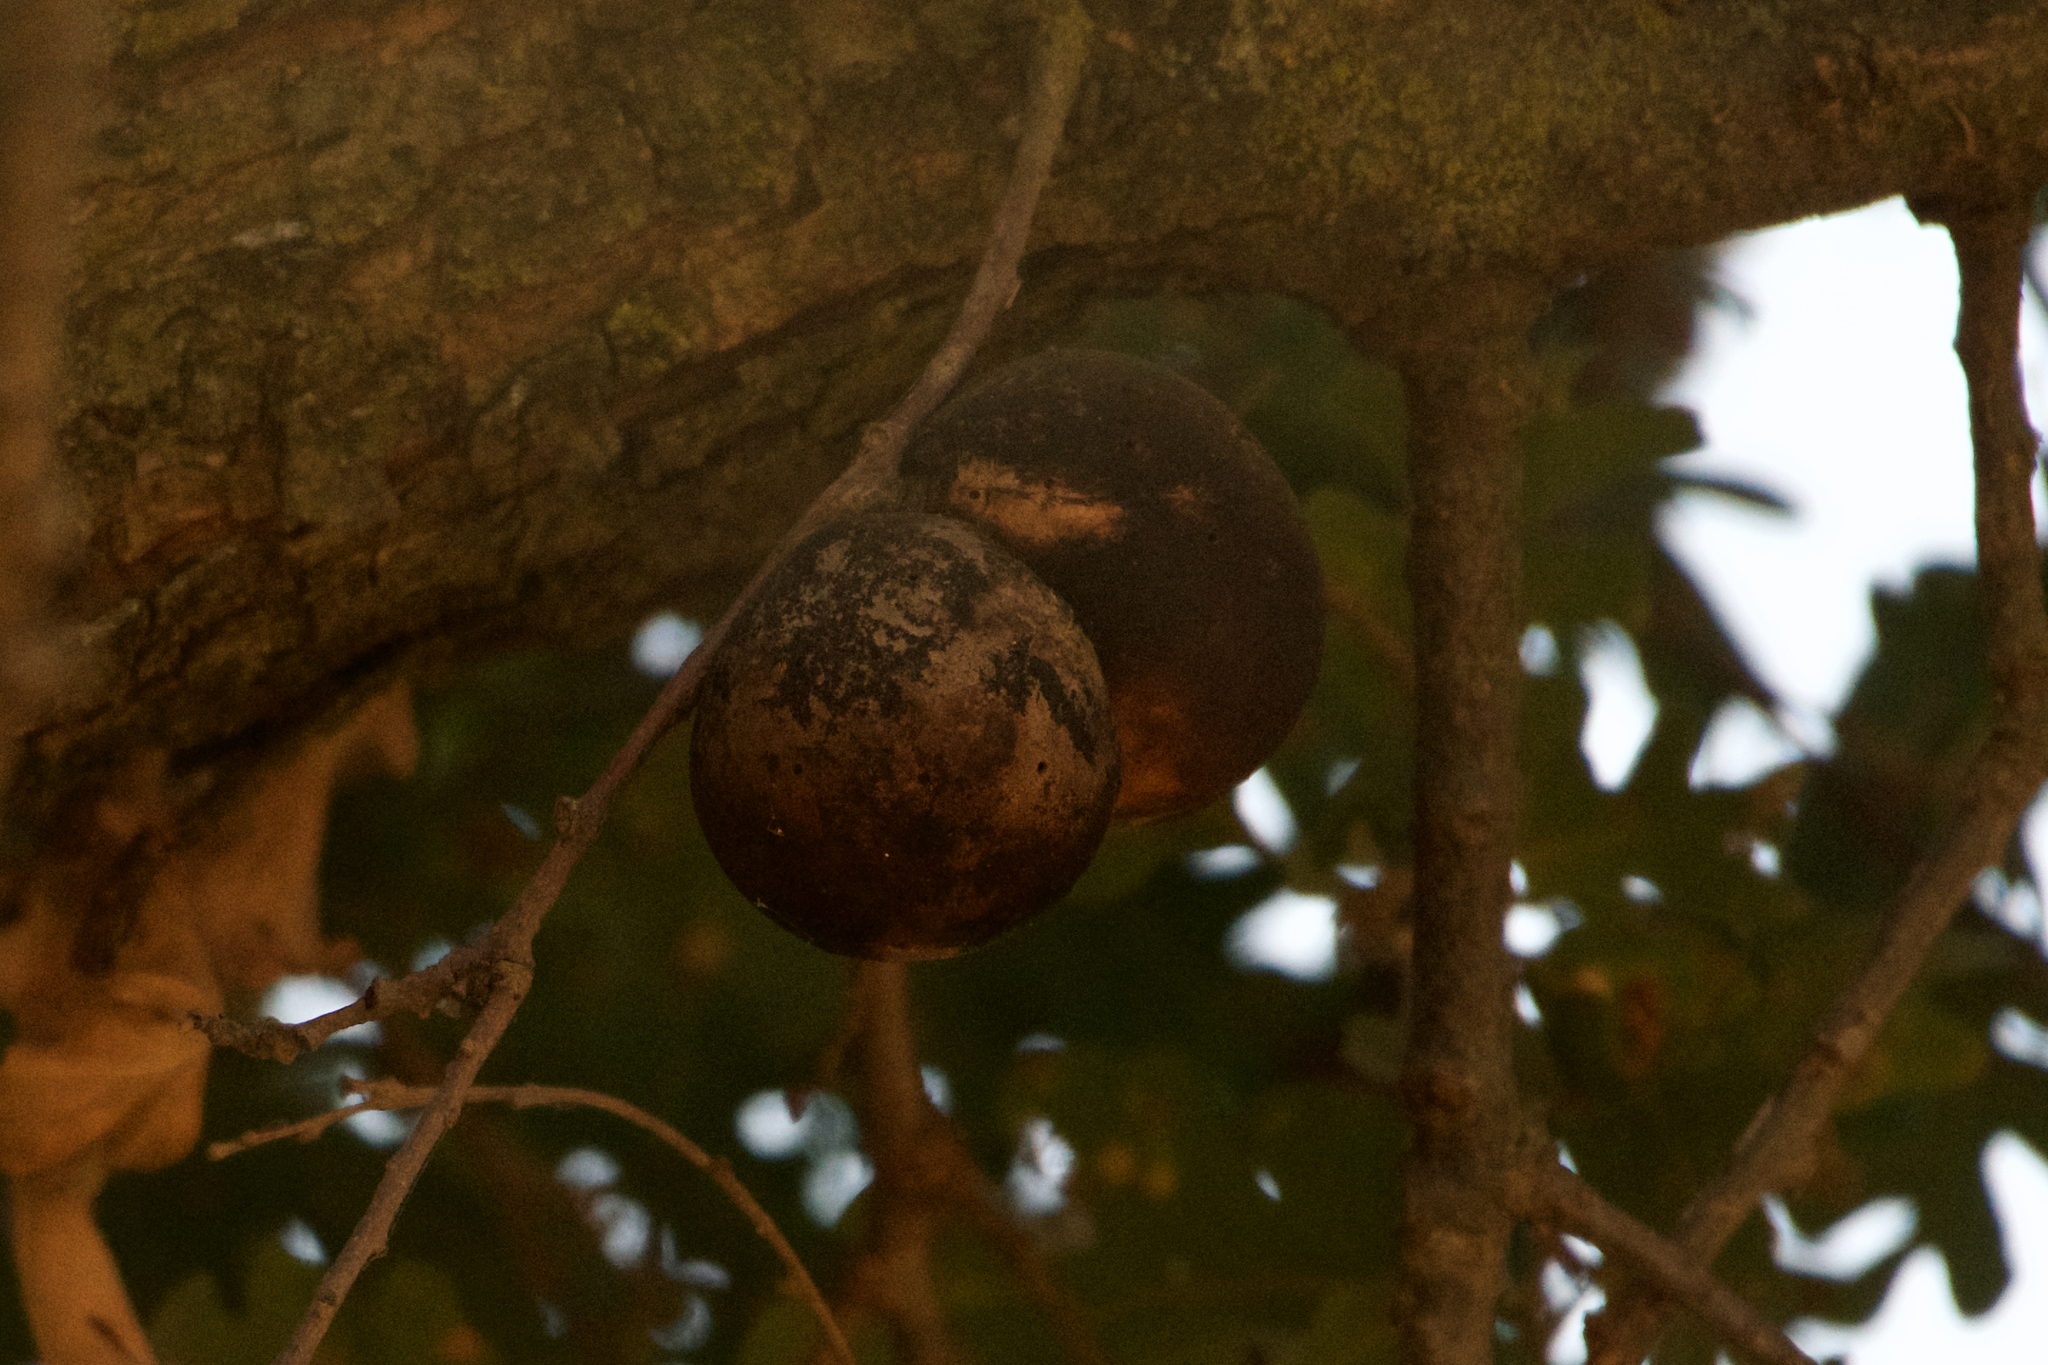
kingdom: Animalia
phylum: Arthropoda
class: Insecta
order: Hymenoptera
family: Cynipidae
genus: Andricus
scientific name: Andricus quercuscalifornicus
